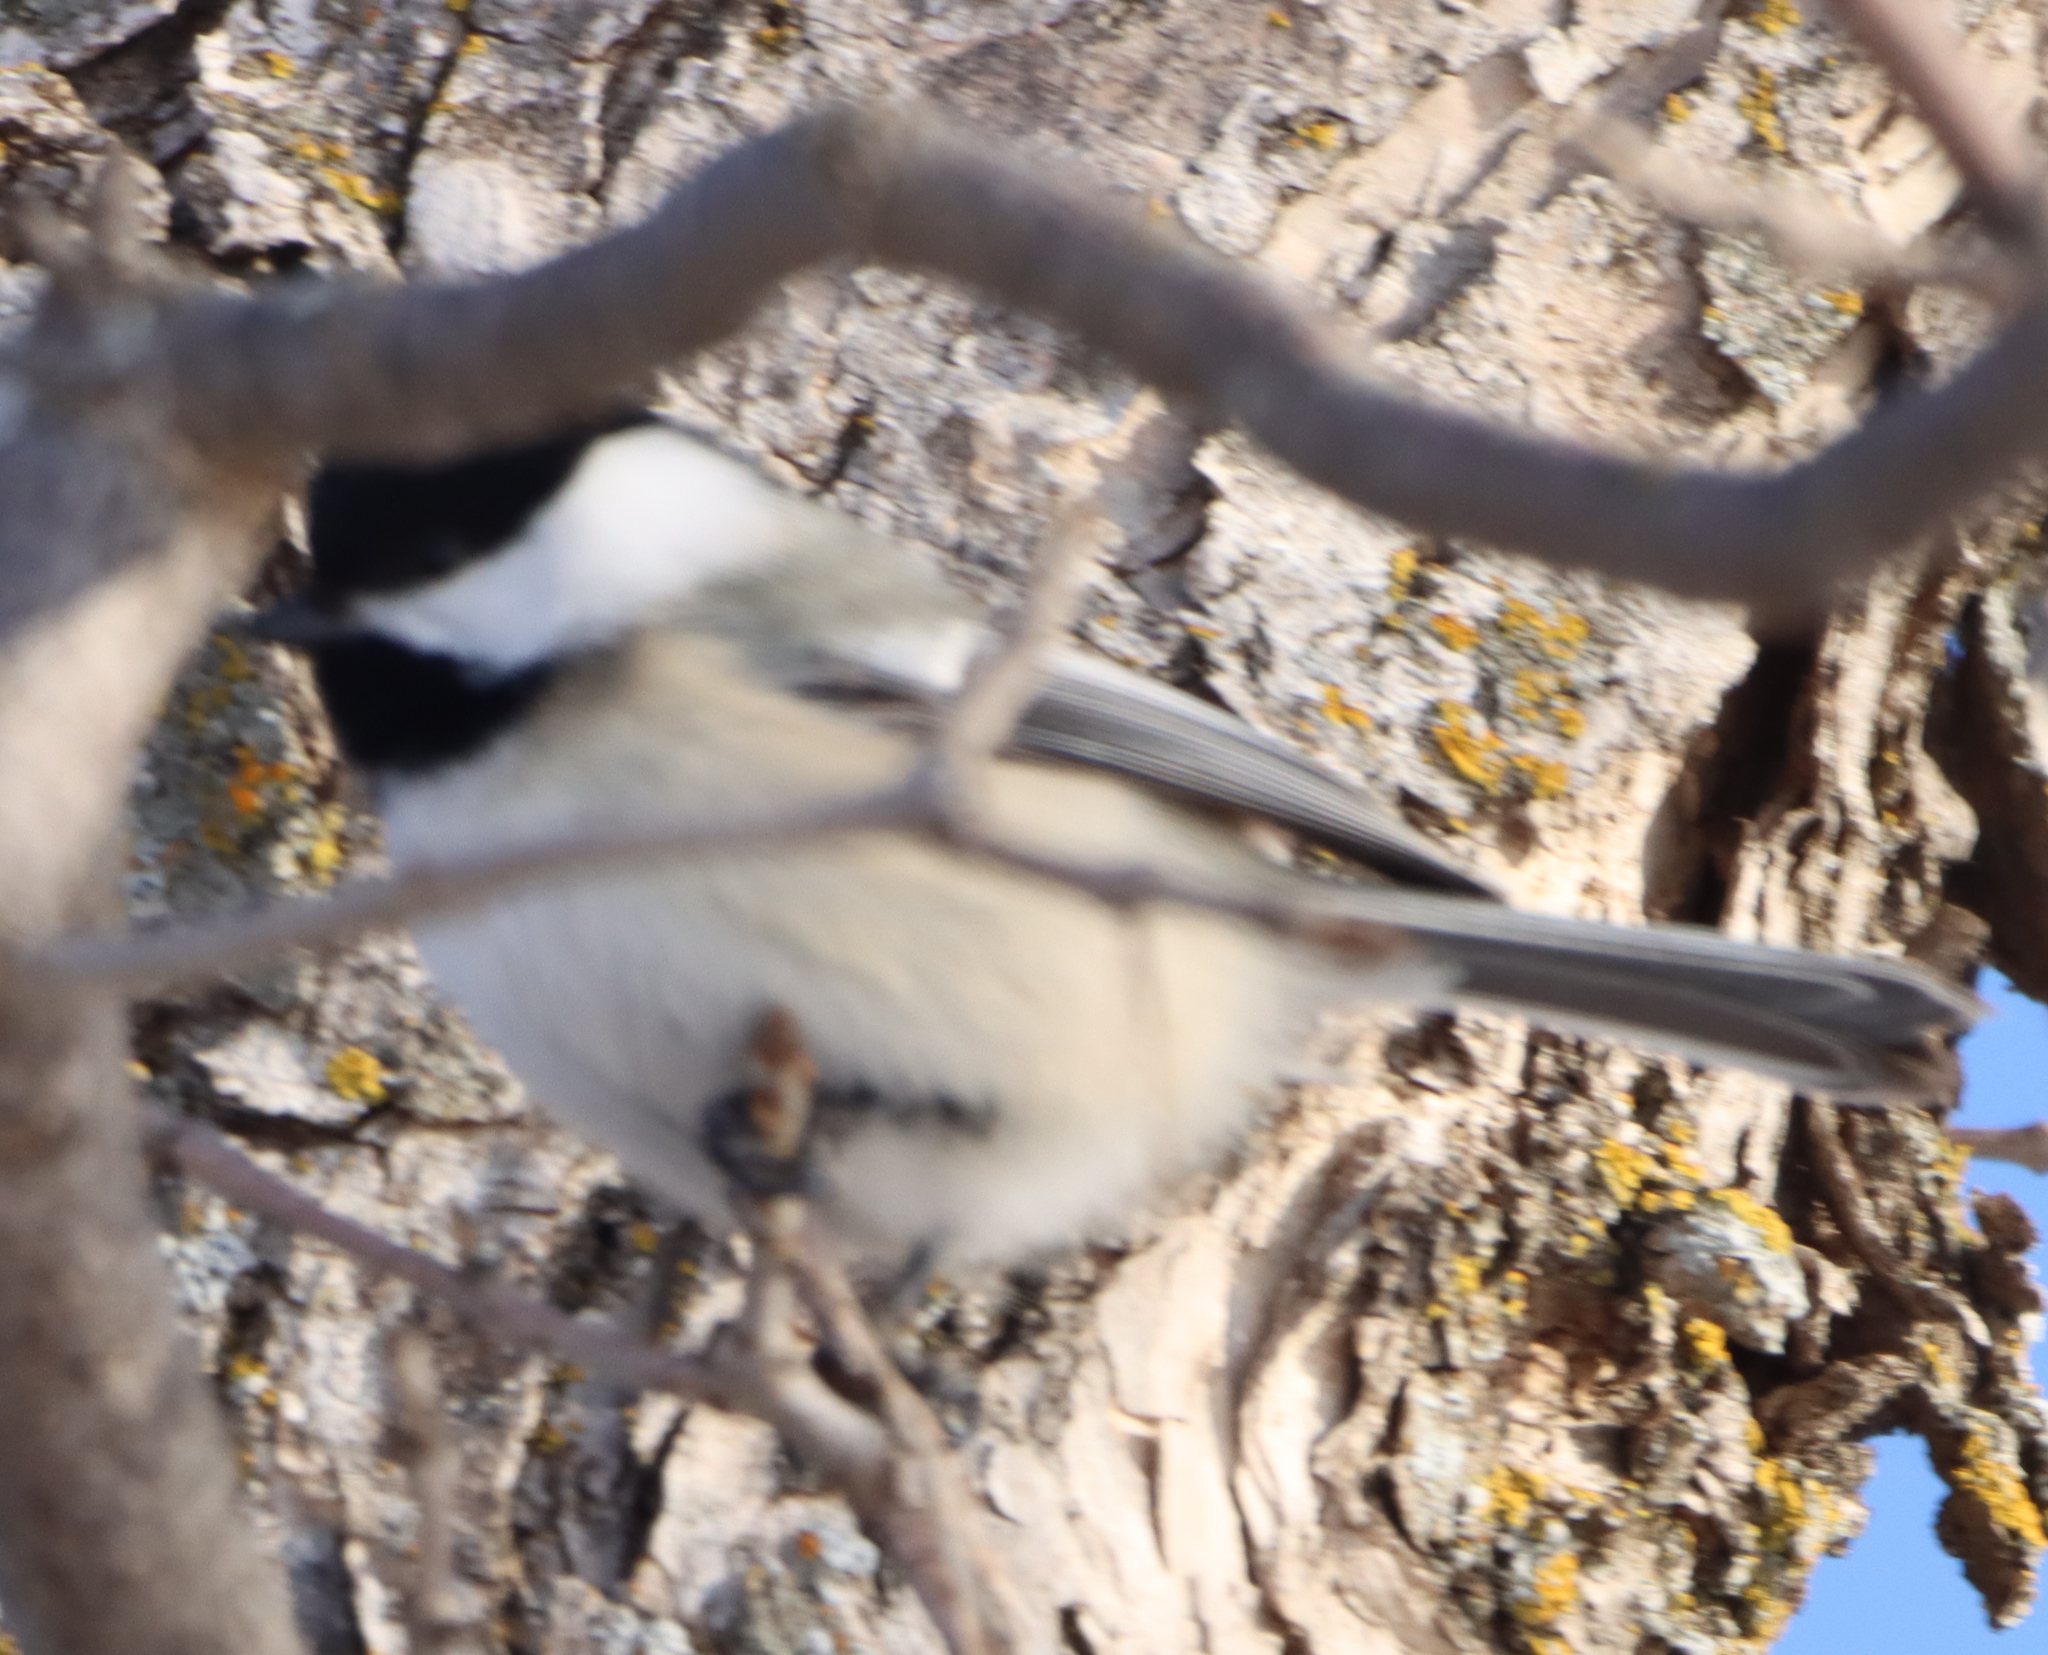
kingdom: Animalia
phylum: Chordata
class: Aves
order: Passeriformes
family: Paridae
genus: Poecile
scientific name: Poecile atricapillus
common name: Black-capped chickadee
